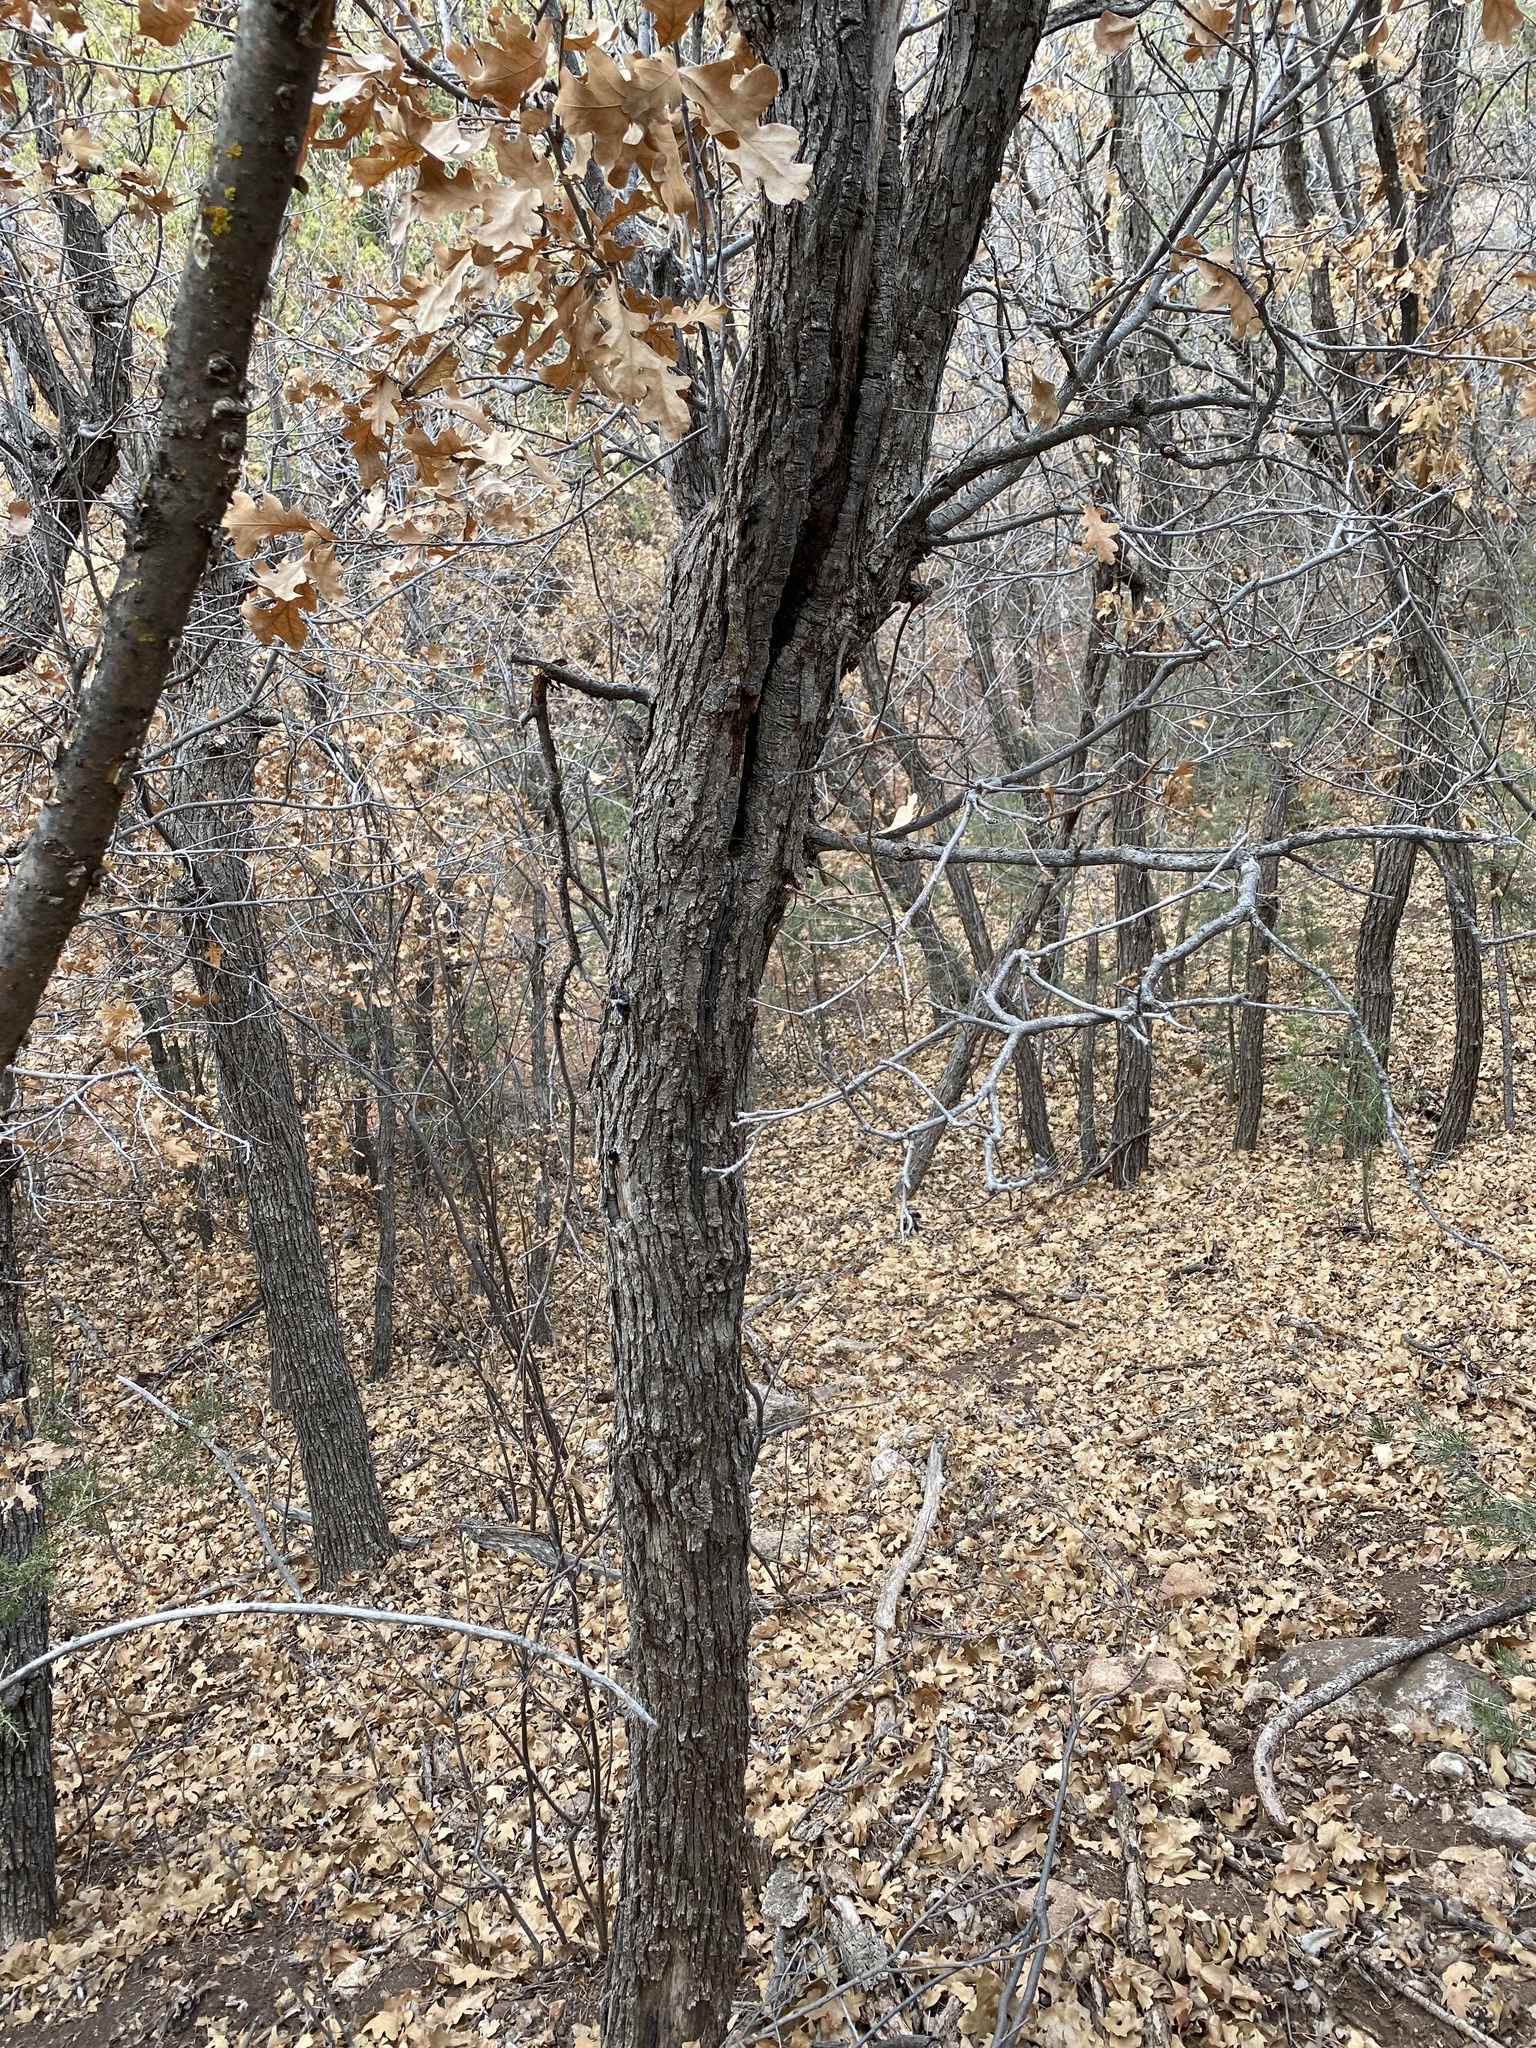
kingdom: Plantae
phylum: Tracheophyta
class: Magnoliopsida
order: Fagales
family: Fagaceae
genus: Quercus
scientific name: Quercus gambelii
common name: Gambel oak
